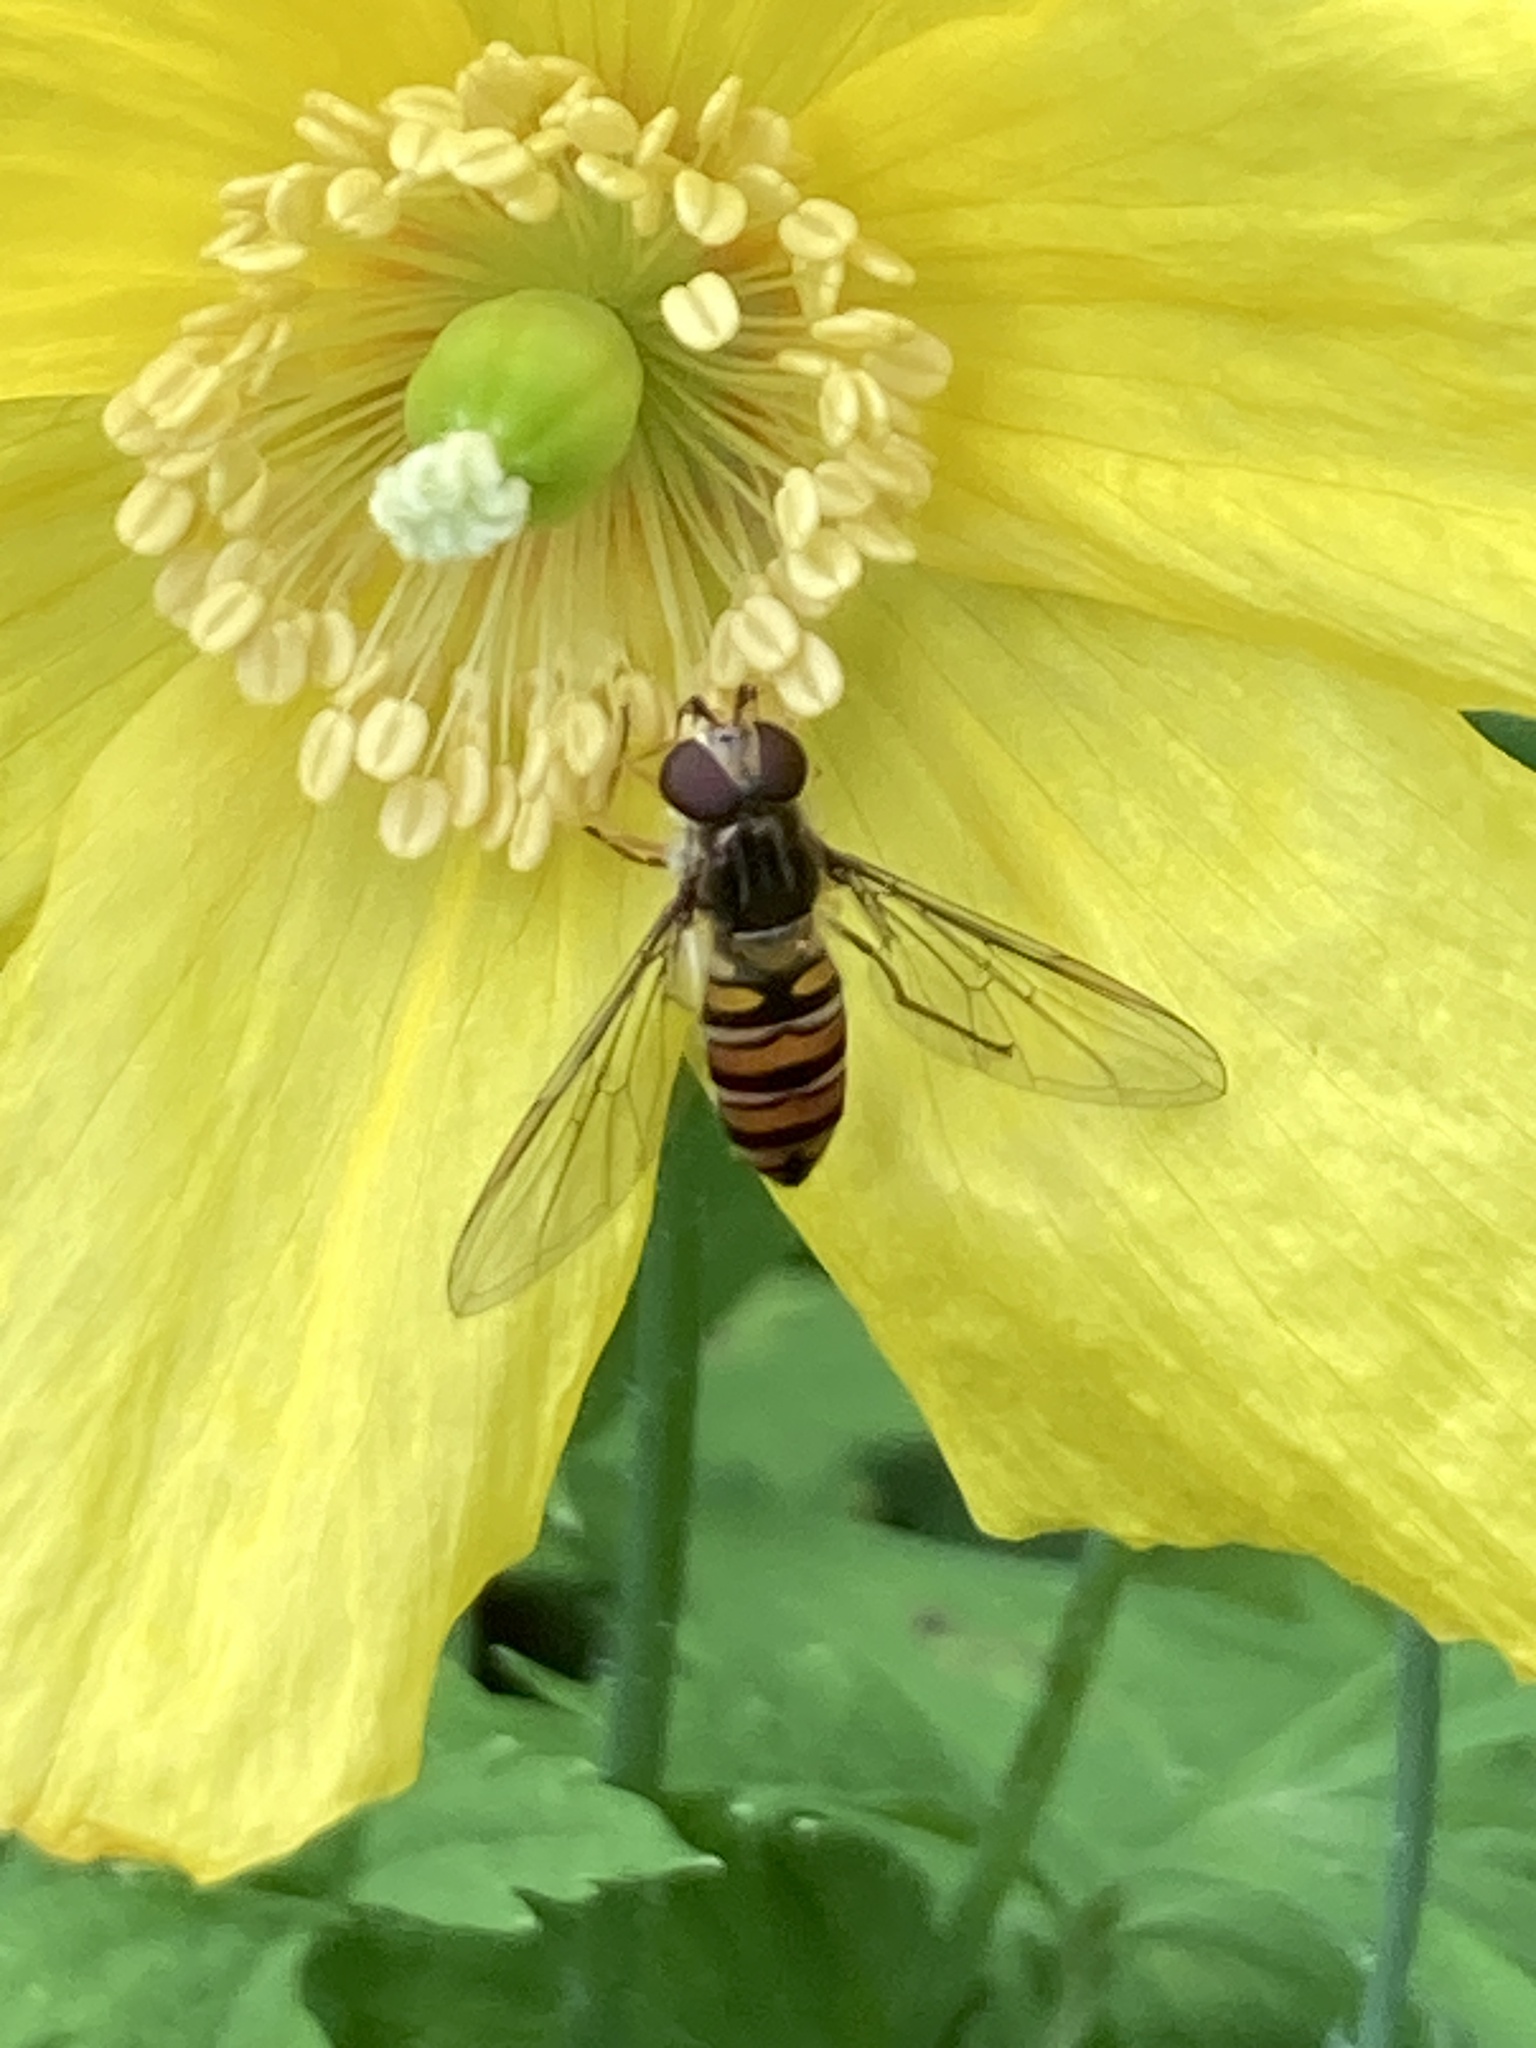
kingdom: Animalia
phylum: Arthropoda
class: Insecta
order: Diptera
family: Syrphidae
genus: Episyrphus
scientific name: Episyrphus balteatus
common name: Marmalade hoverfly
